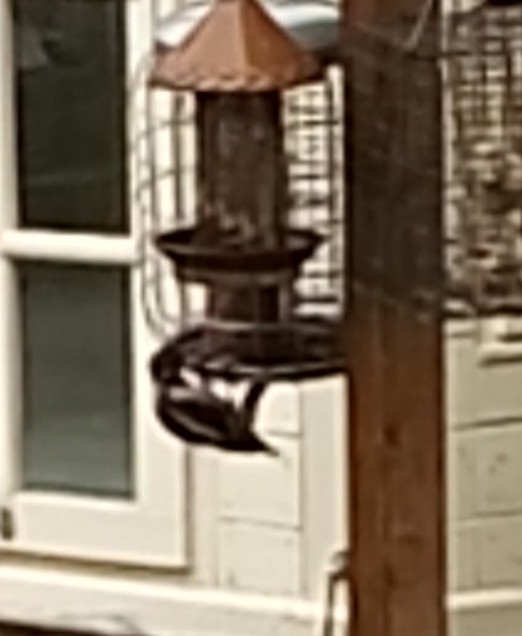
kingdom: Animalia
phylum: Chordata
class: Aves
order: Piciformes
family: Picidae
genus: Dendrocopos
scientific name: Dendrocopos major
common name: Great spotted woodpecker
